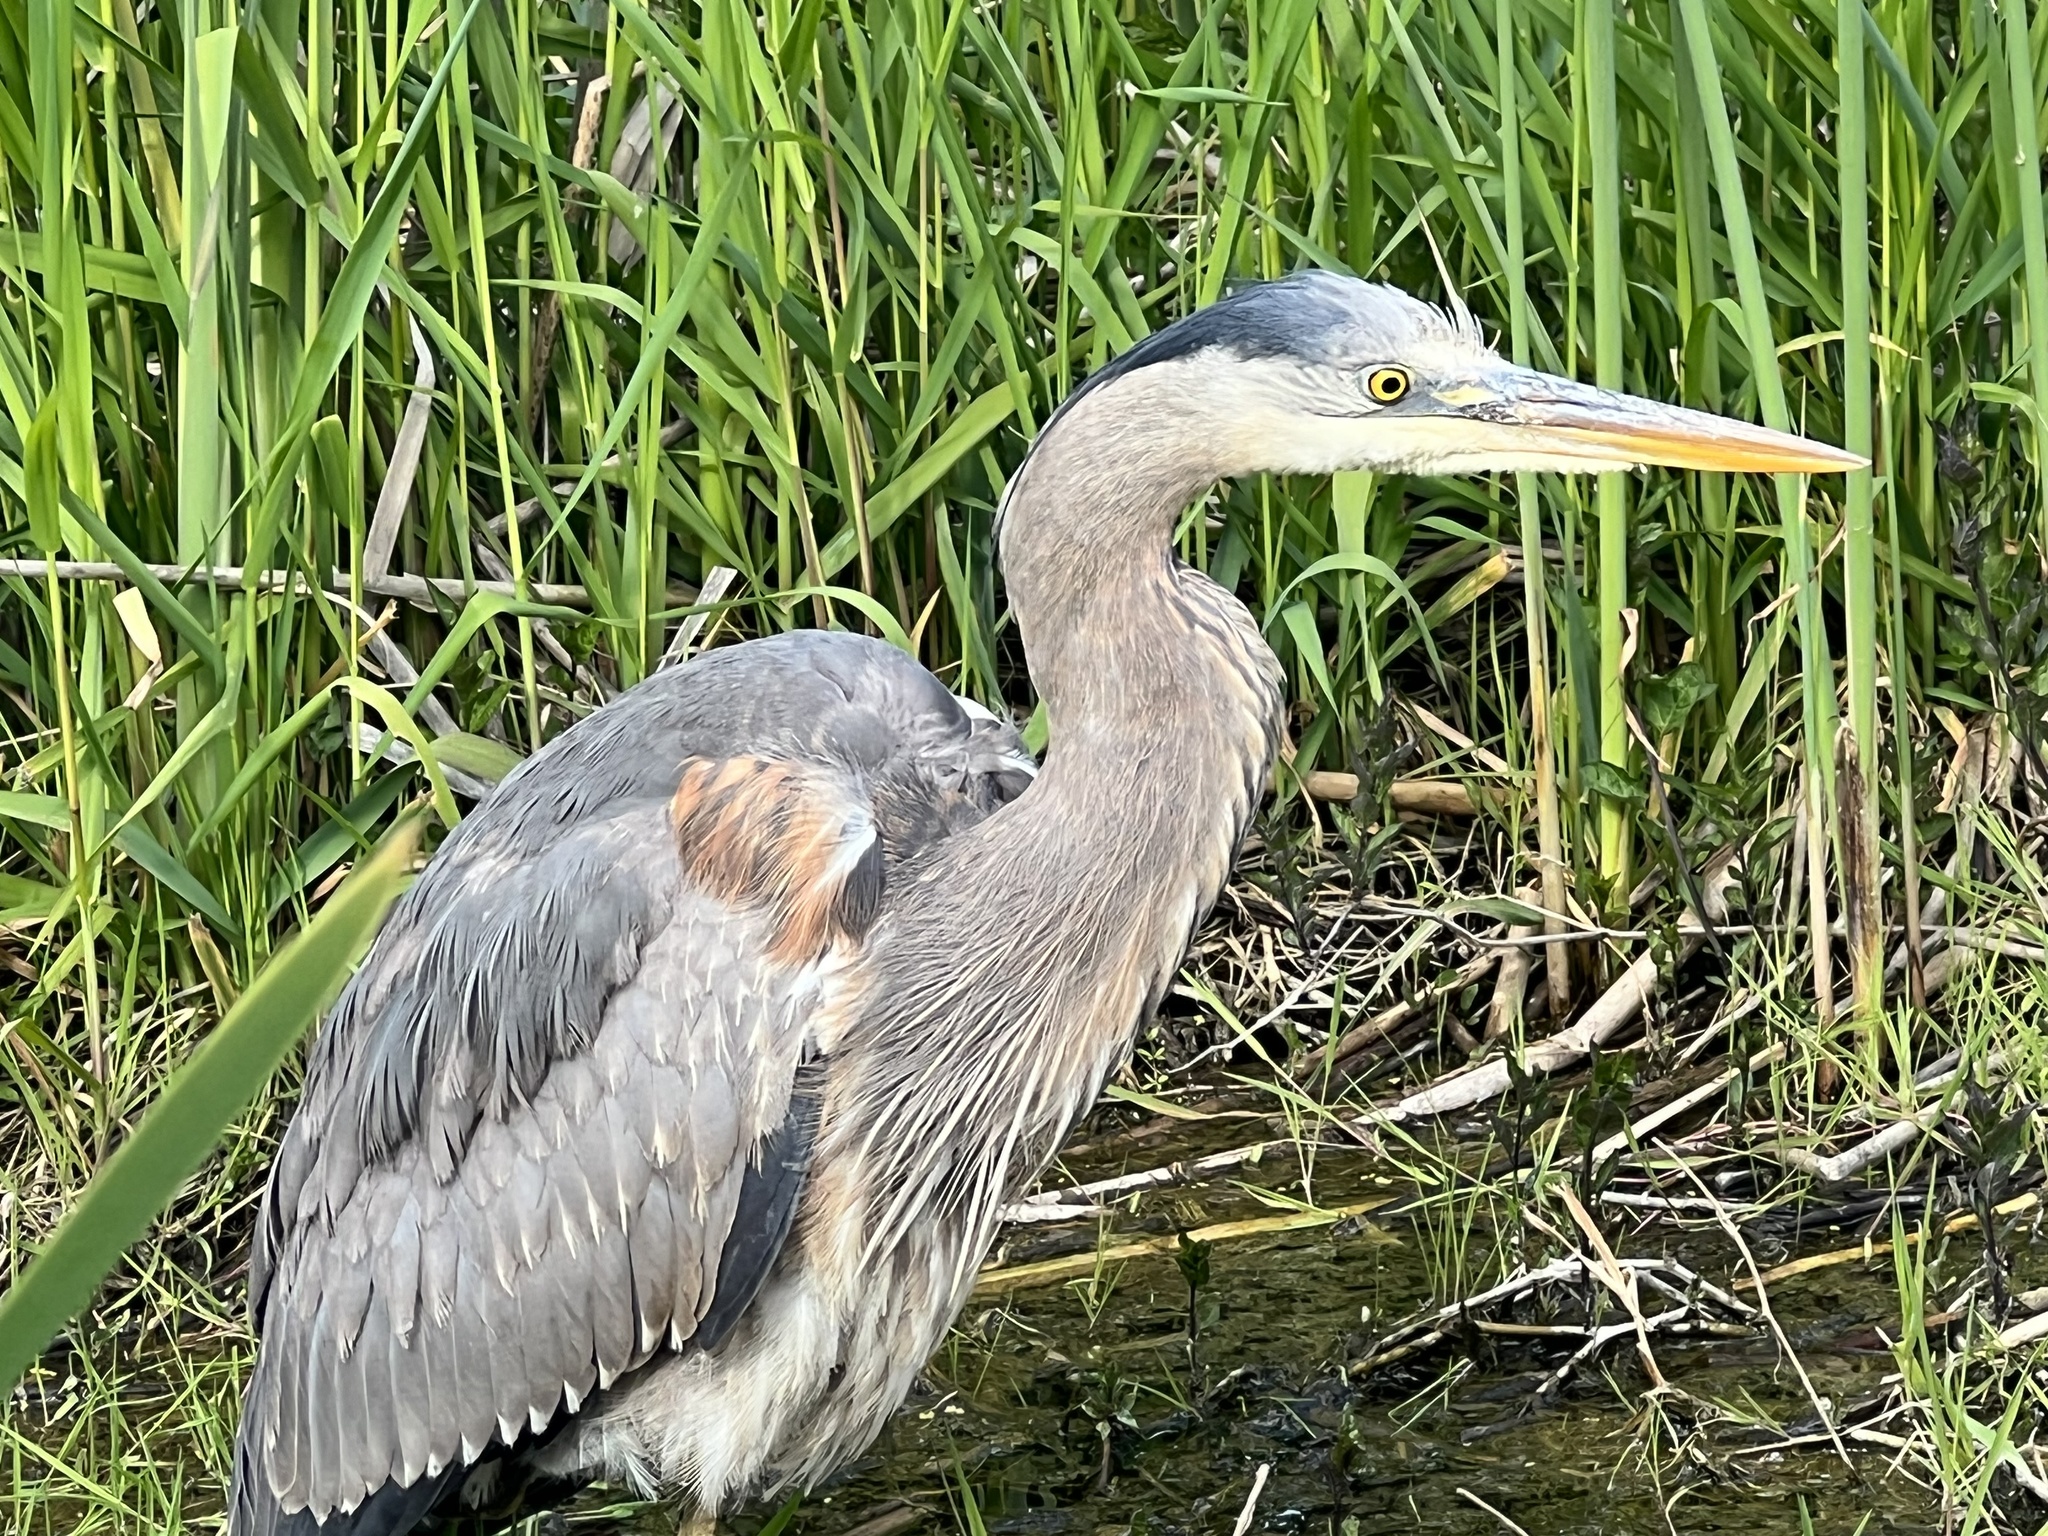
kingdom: Animalia
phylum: Chordata
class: Aves
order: Pelecaniformes
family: Ardeidae
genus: Ardea
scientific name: Ardea herodias
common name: Great blue heron
